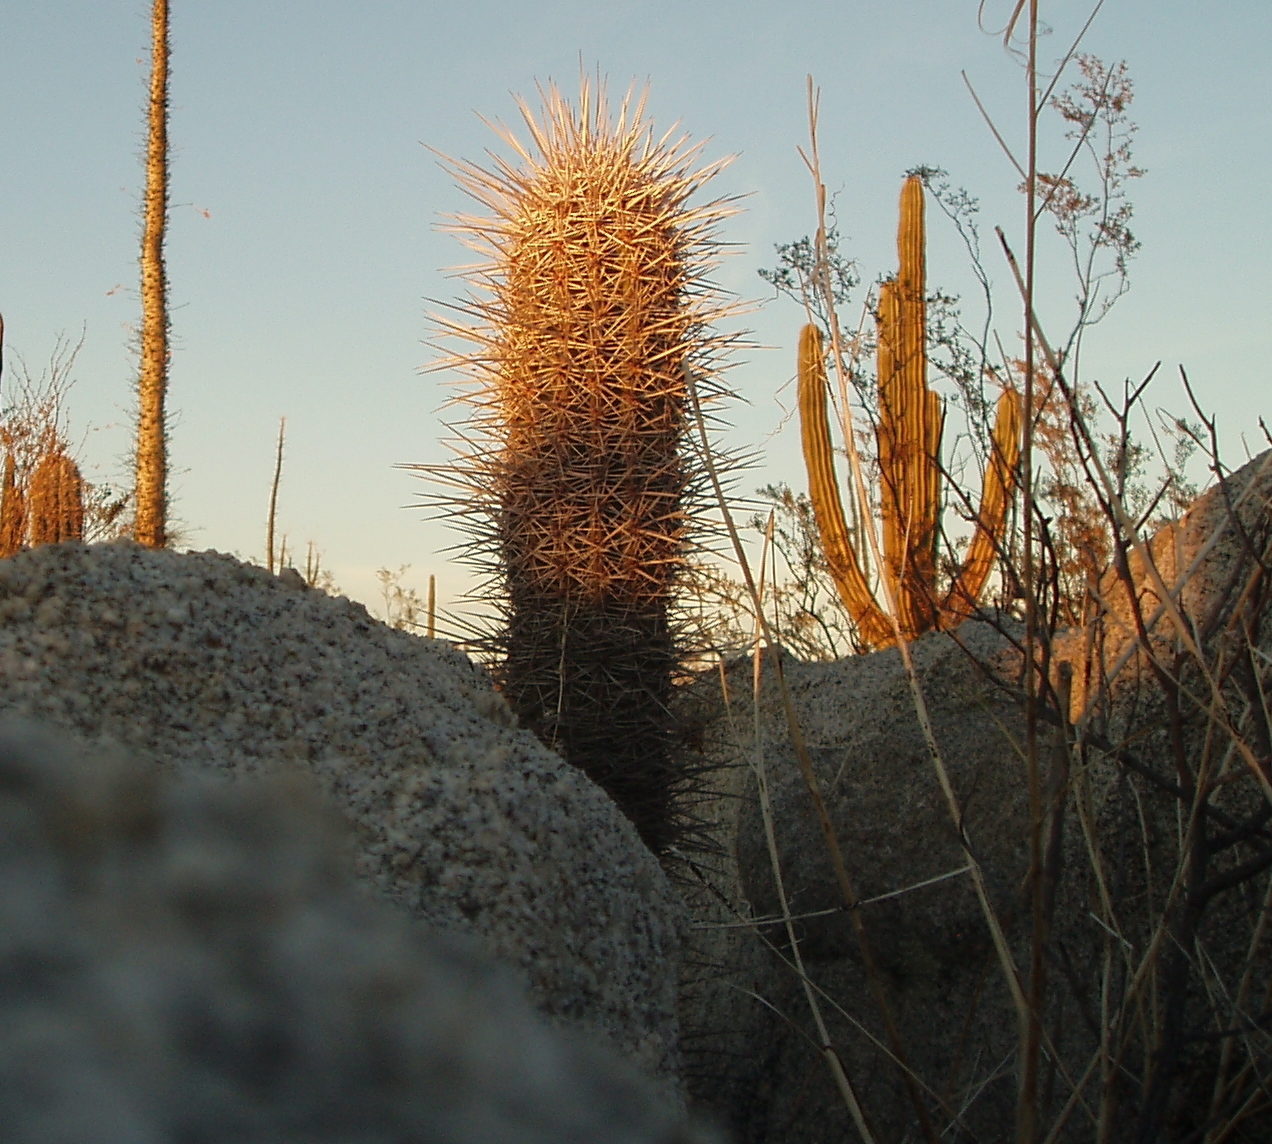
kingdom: Plantae
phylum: Tracheophyta
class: Magnoliopsida
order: Caryophyllales
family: Cactaceae
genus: Pachycereus
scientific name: Pachycereus pringlei
